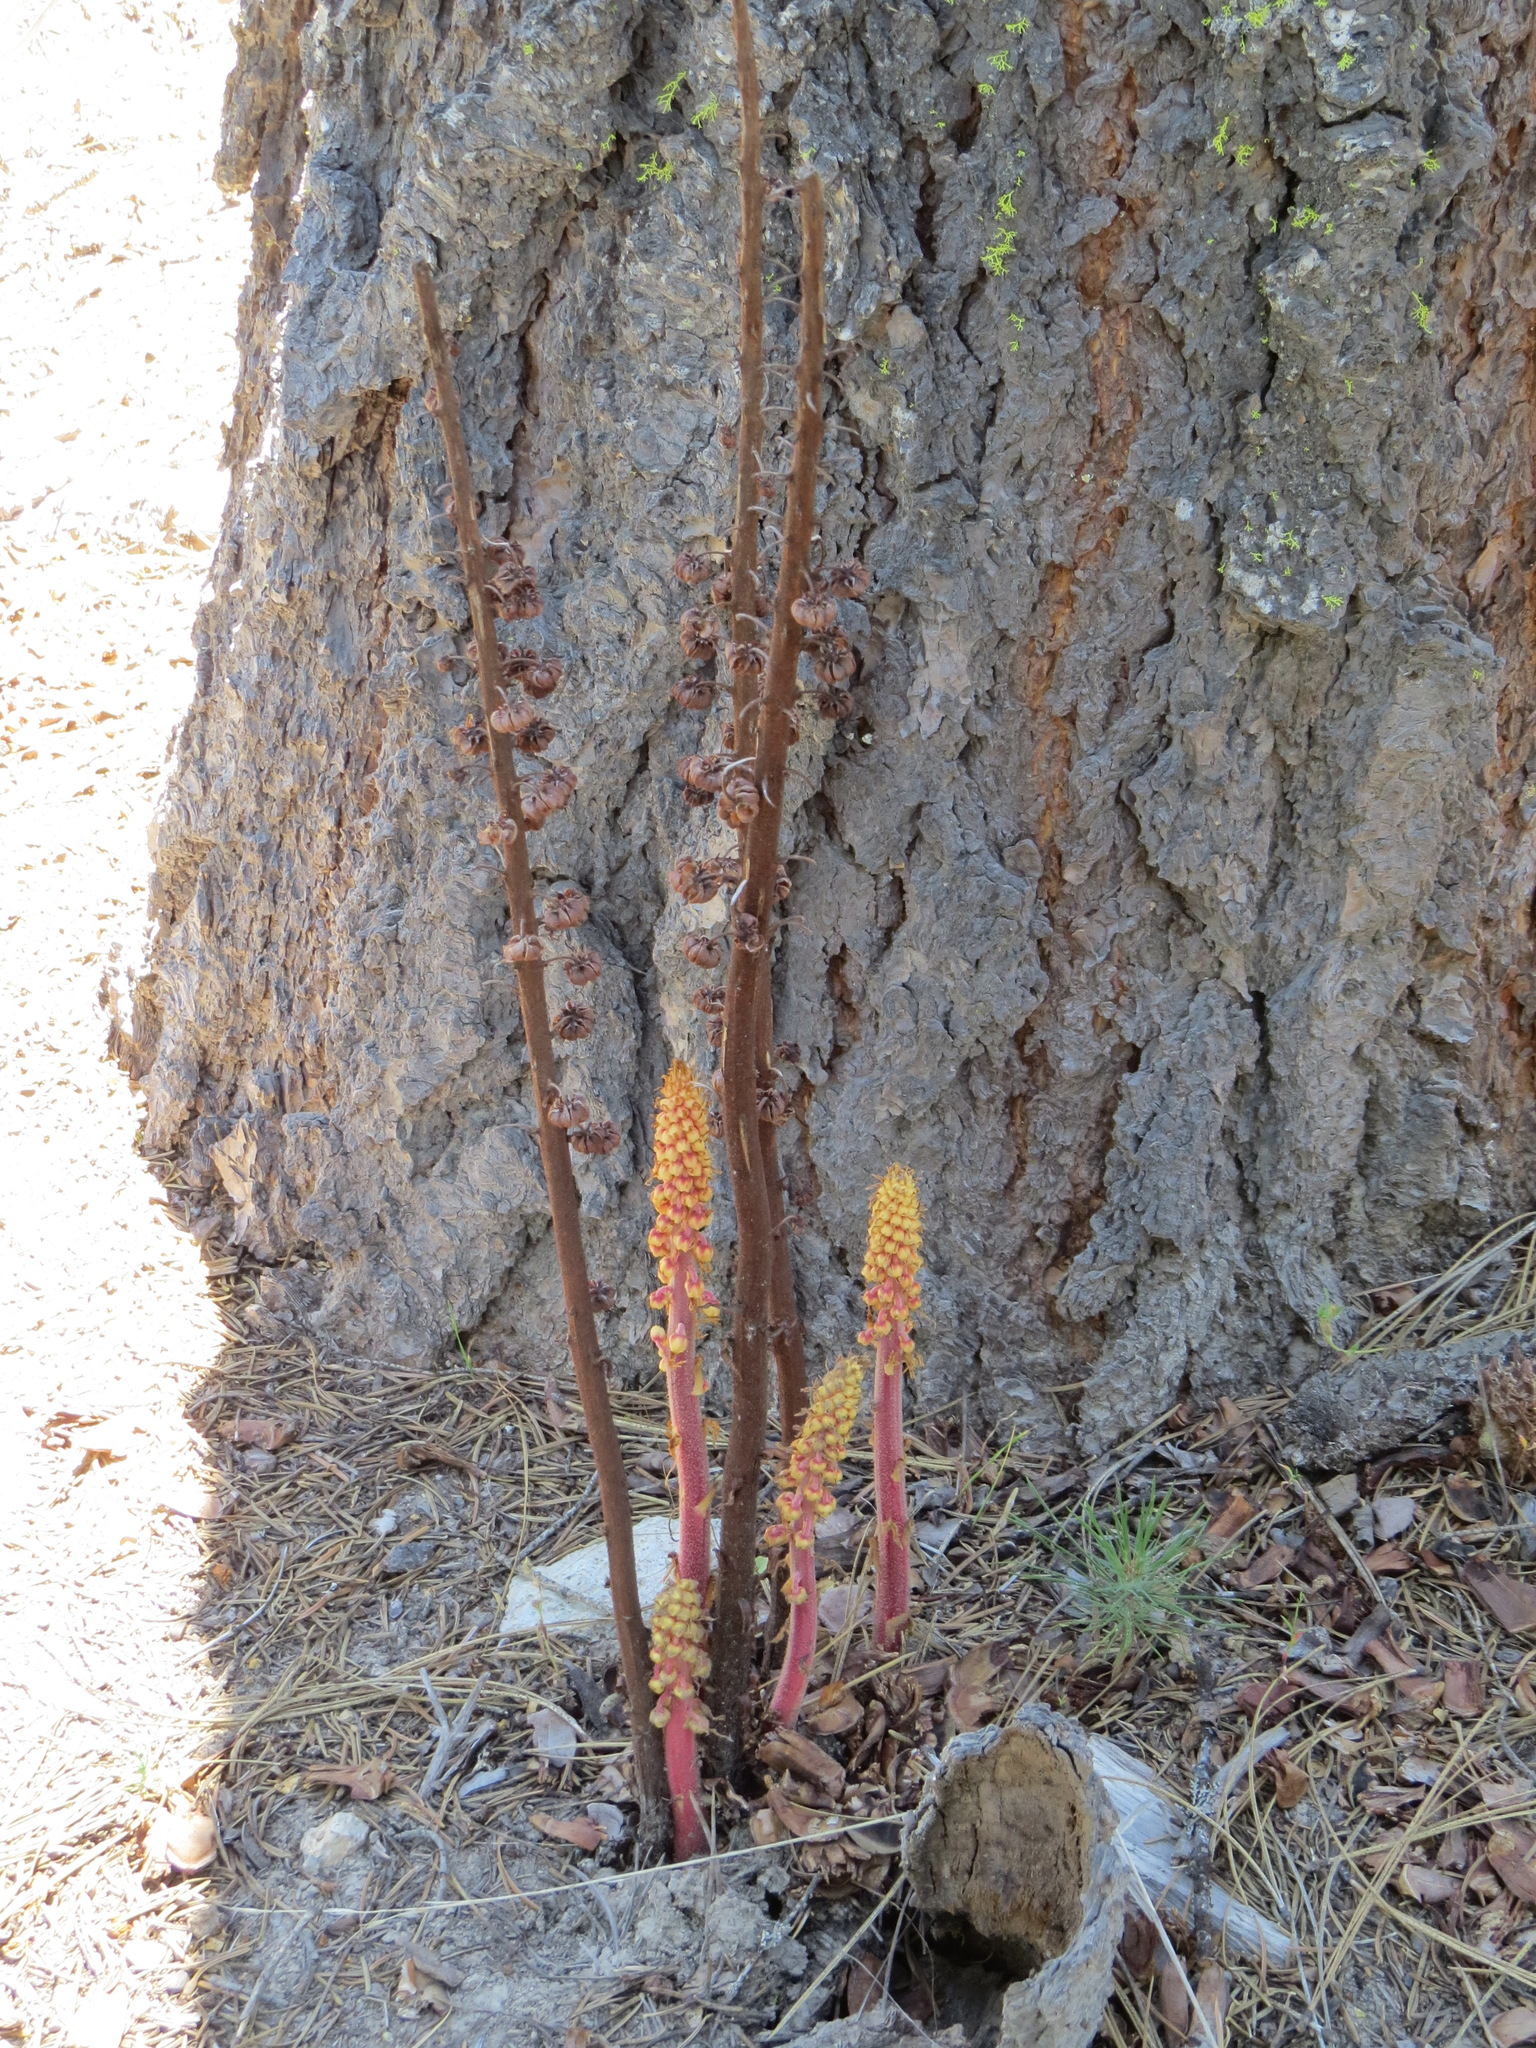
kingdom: Plantae
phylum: Tracheophyta
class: Magnoliopsida
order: Ericales
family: Ericaceae
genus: Pterospora
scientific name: Pterospora andromedea
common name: Giant bird's-nest
